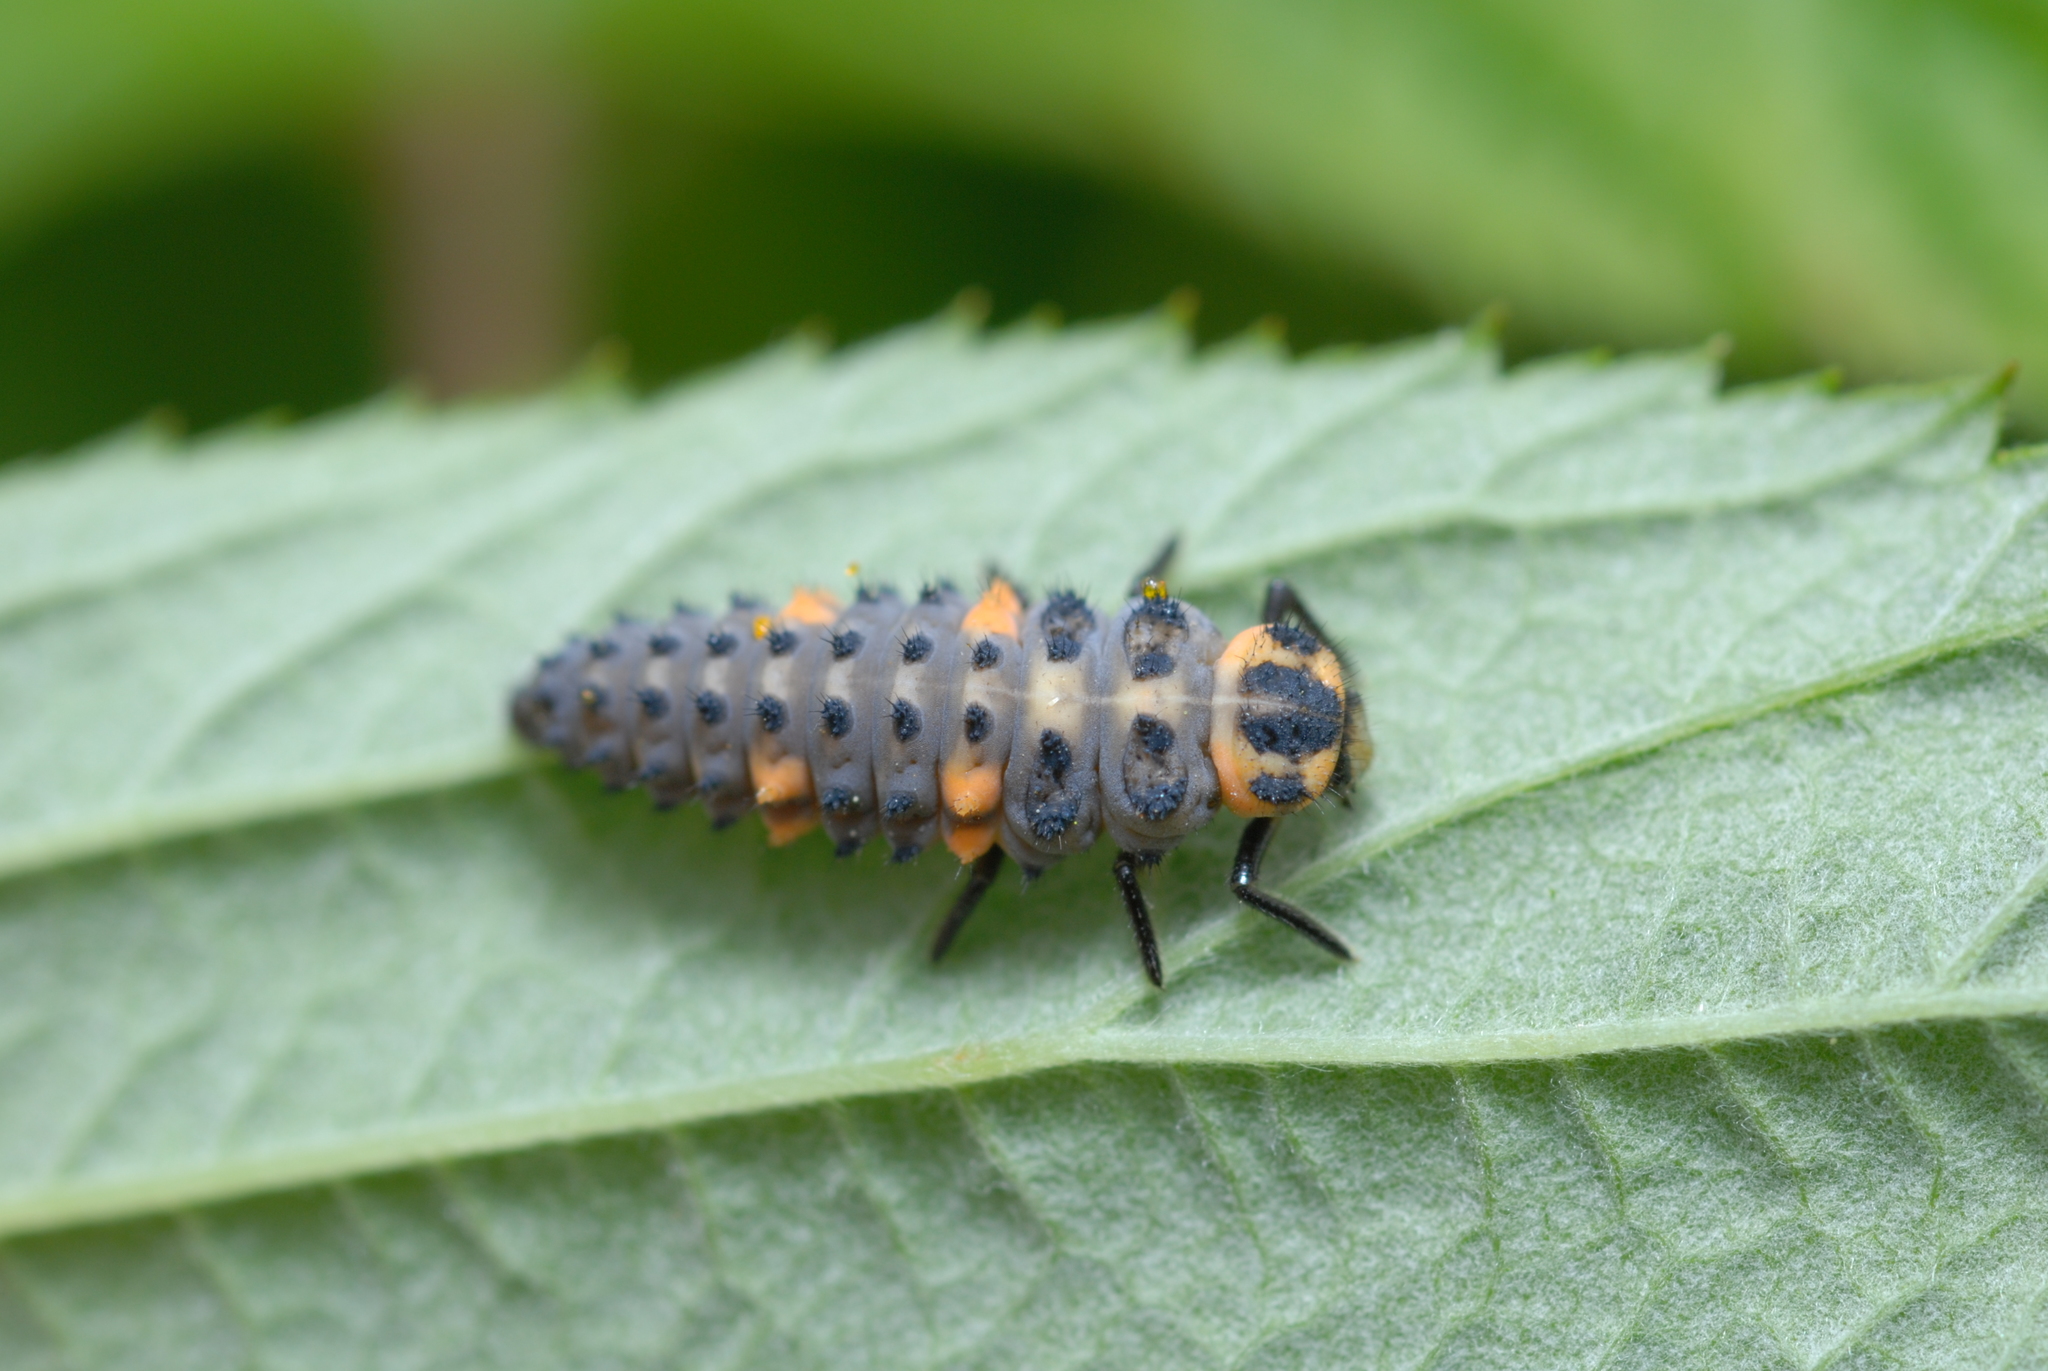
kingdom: Animalia
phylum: Arthropoda
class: Insecta
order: Coleoptera
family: Coccinellidae
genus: Coccinella
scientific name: Coccinella septempunctata
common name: Sevenspotted lady beetle
